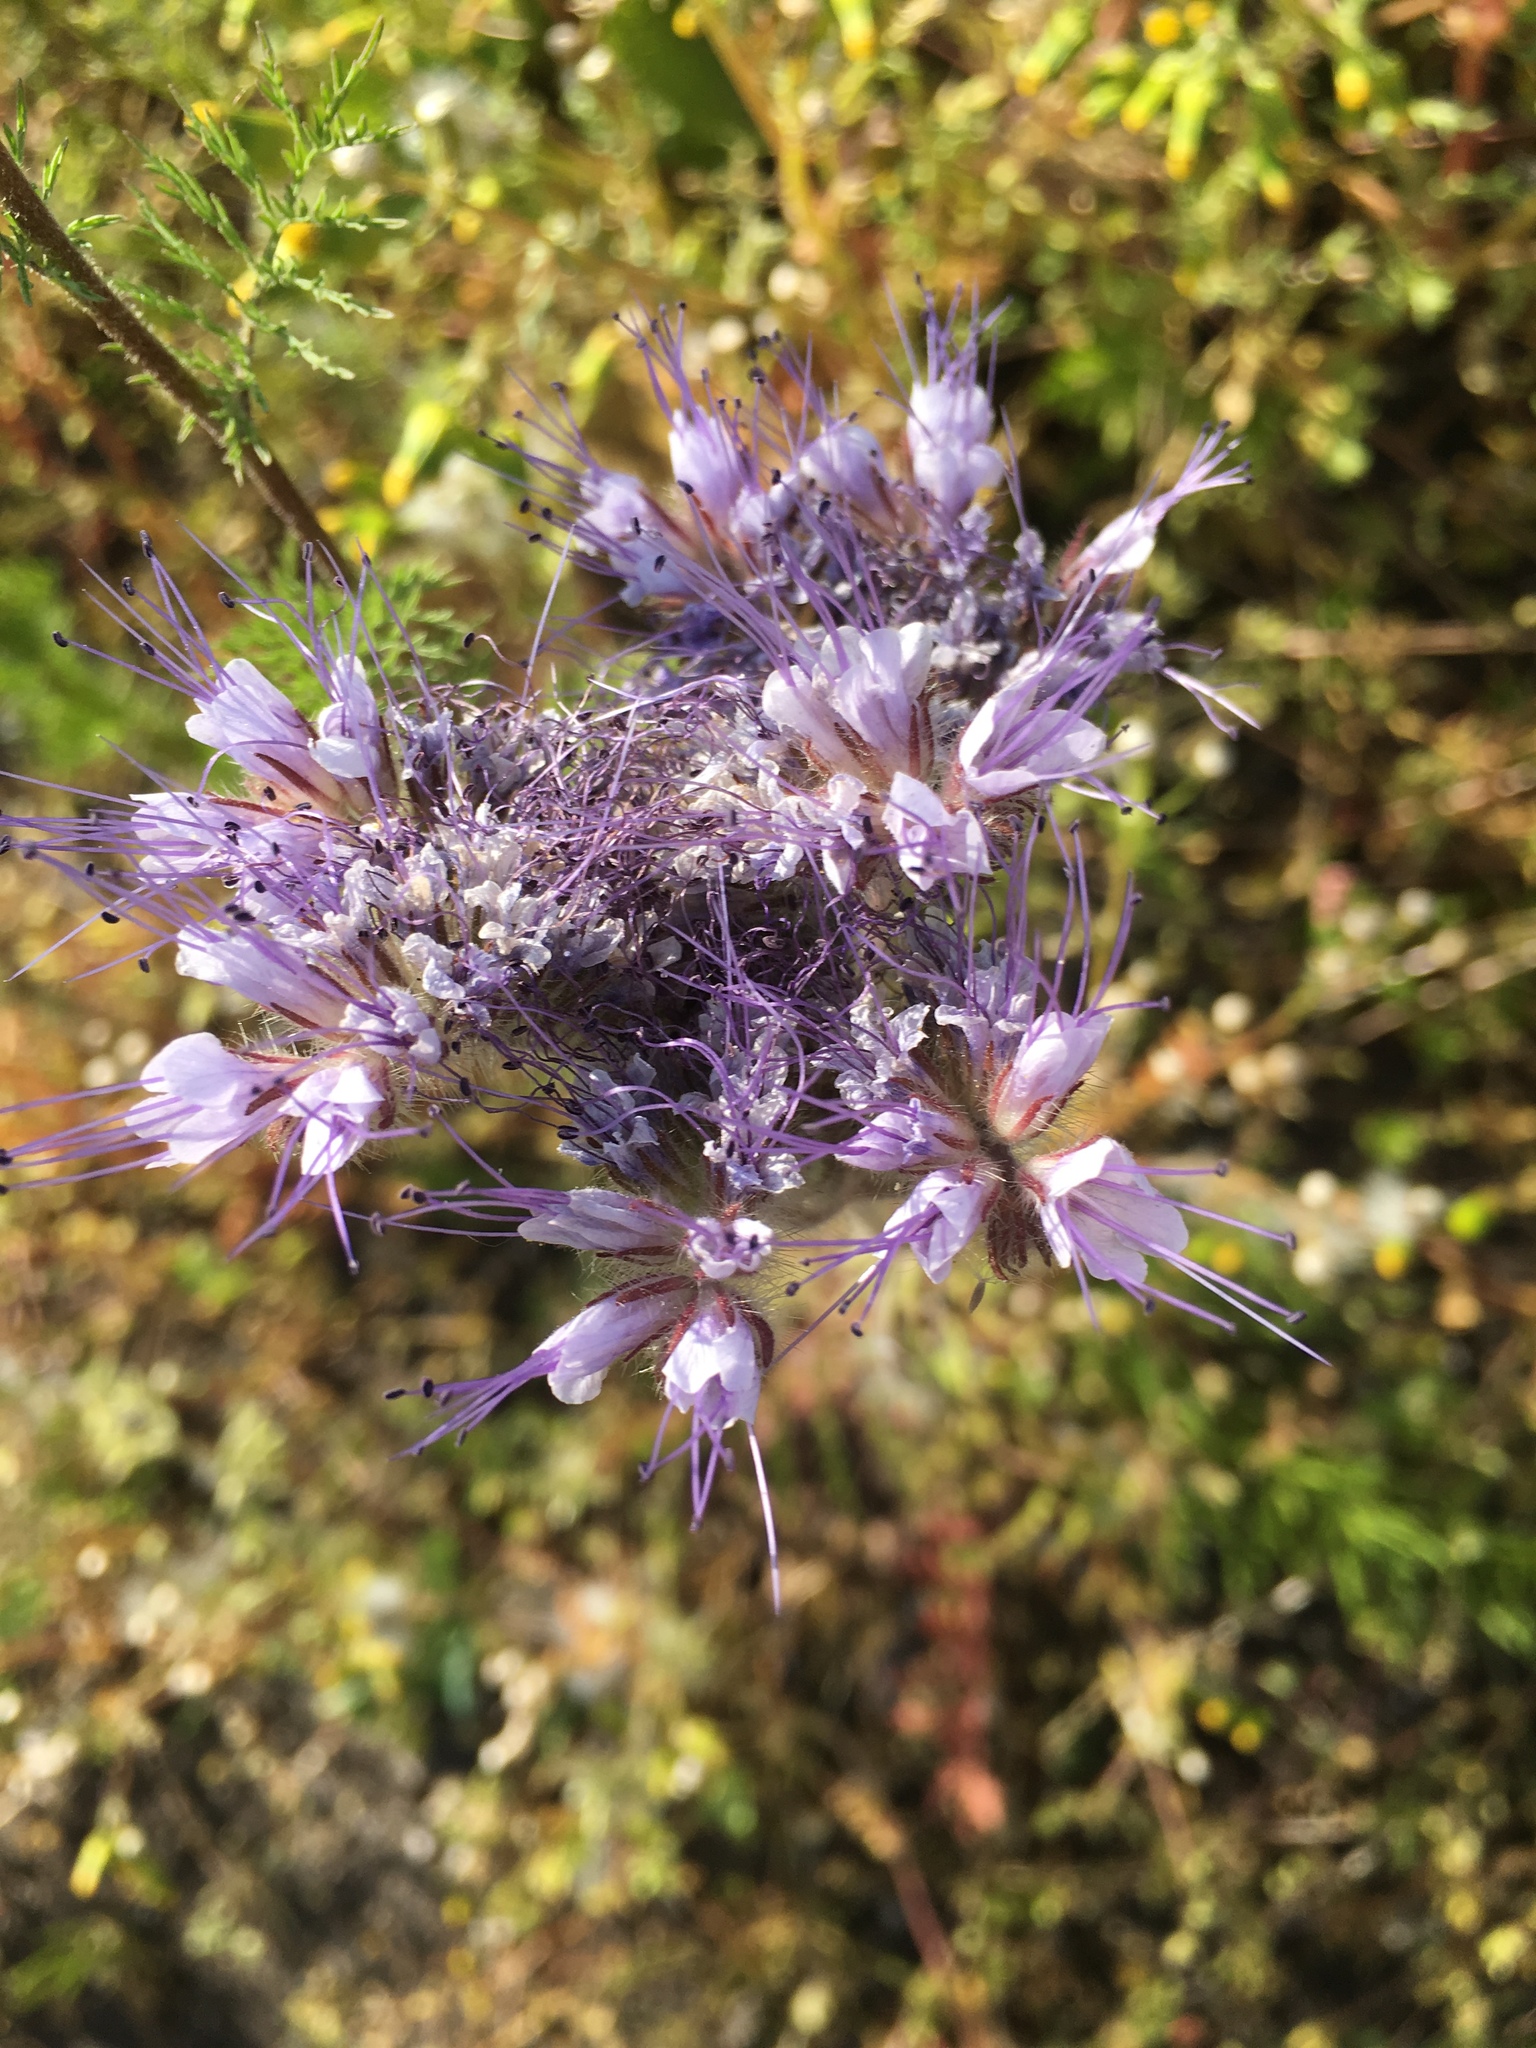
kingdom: Plantae
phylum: Tracheophyta
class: Magnoliopsida
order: Boraginales
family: Hydrophyllaceae
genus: Phacelia
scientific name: Phacelia tanacetifolia
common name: Phacelia
